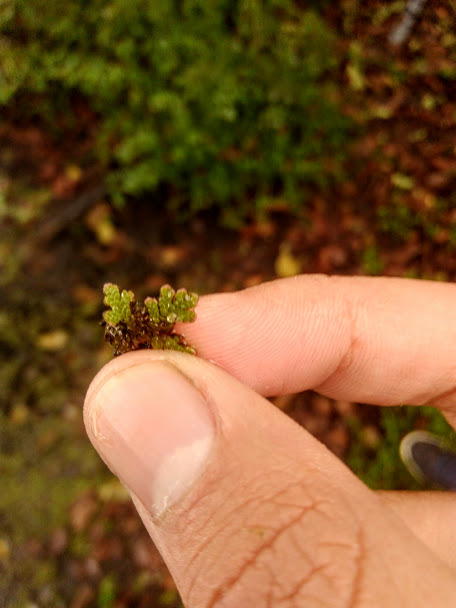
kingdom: Plantae
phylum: Tracheophyta
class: Polypodiopsida
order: Salviniales
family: Salviniaceae
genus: Azolla
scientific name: Azolla filiculoides
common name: Water fern
